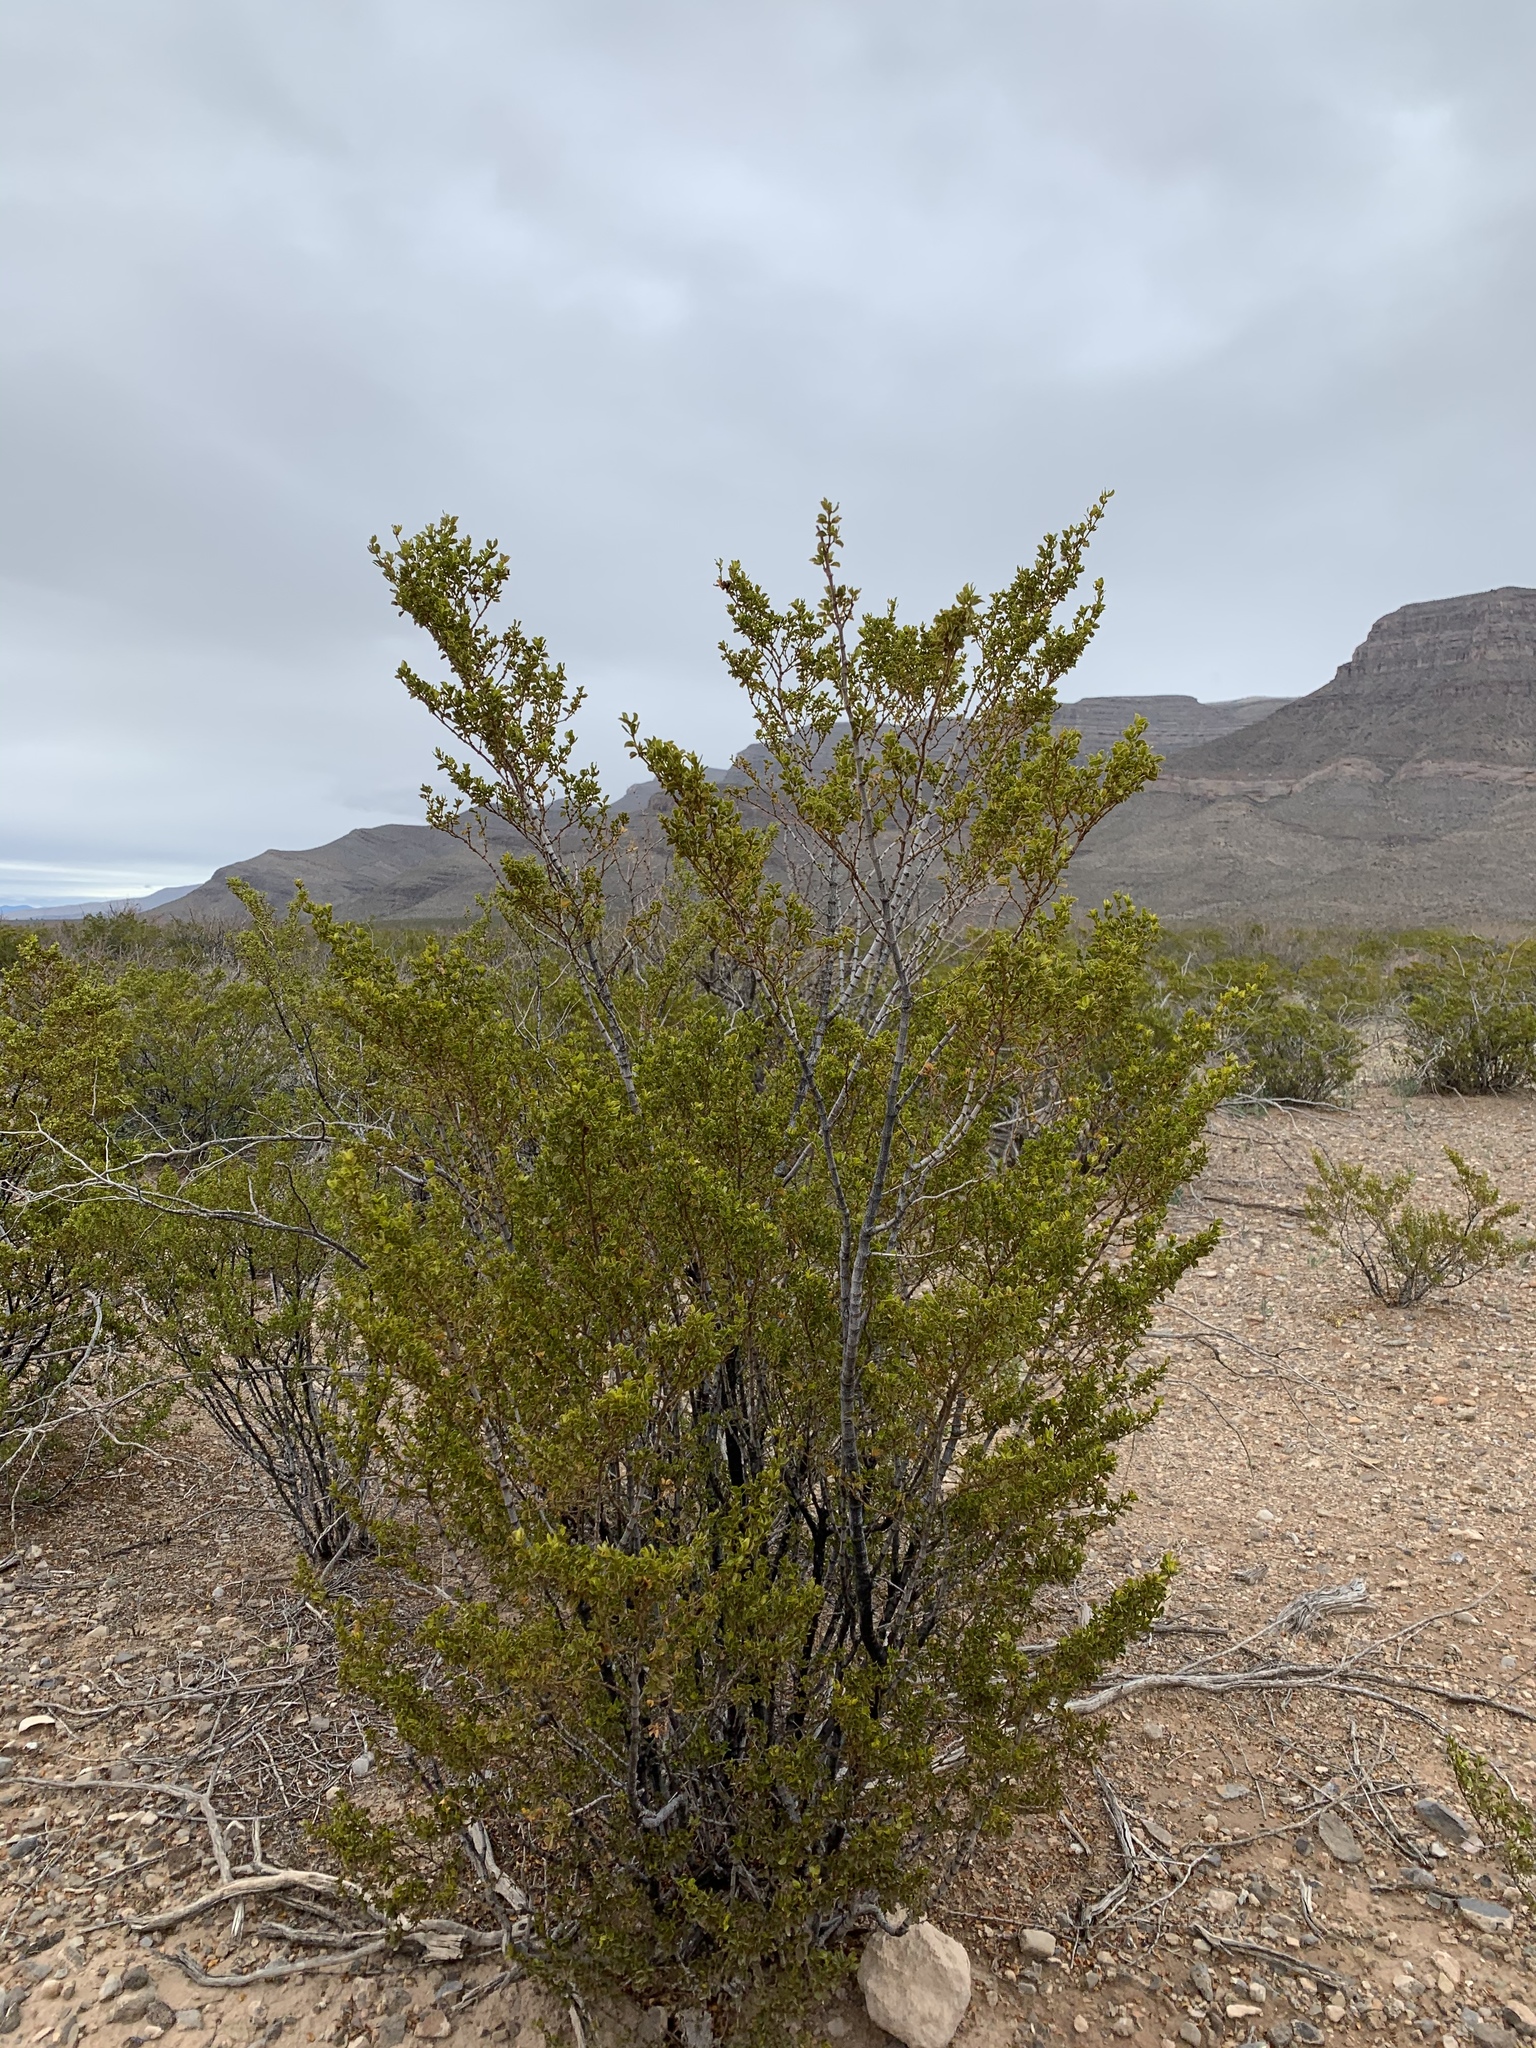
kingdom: Plantae
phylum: Tracheophyta
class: Magnoliopsida
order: Zygophyllales
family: Zygophyllaceae
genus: Larrea
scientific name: Larrea tridentata
